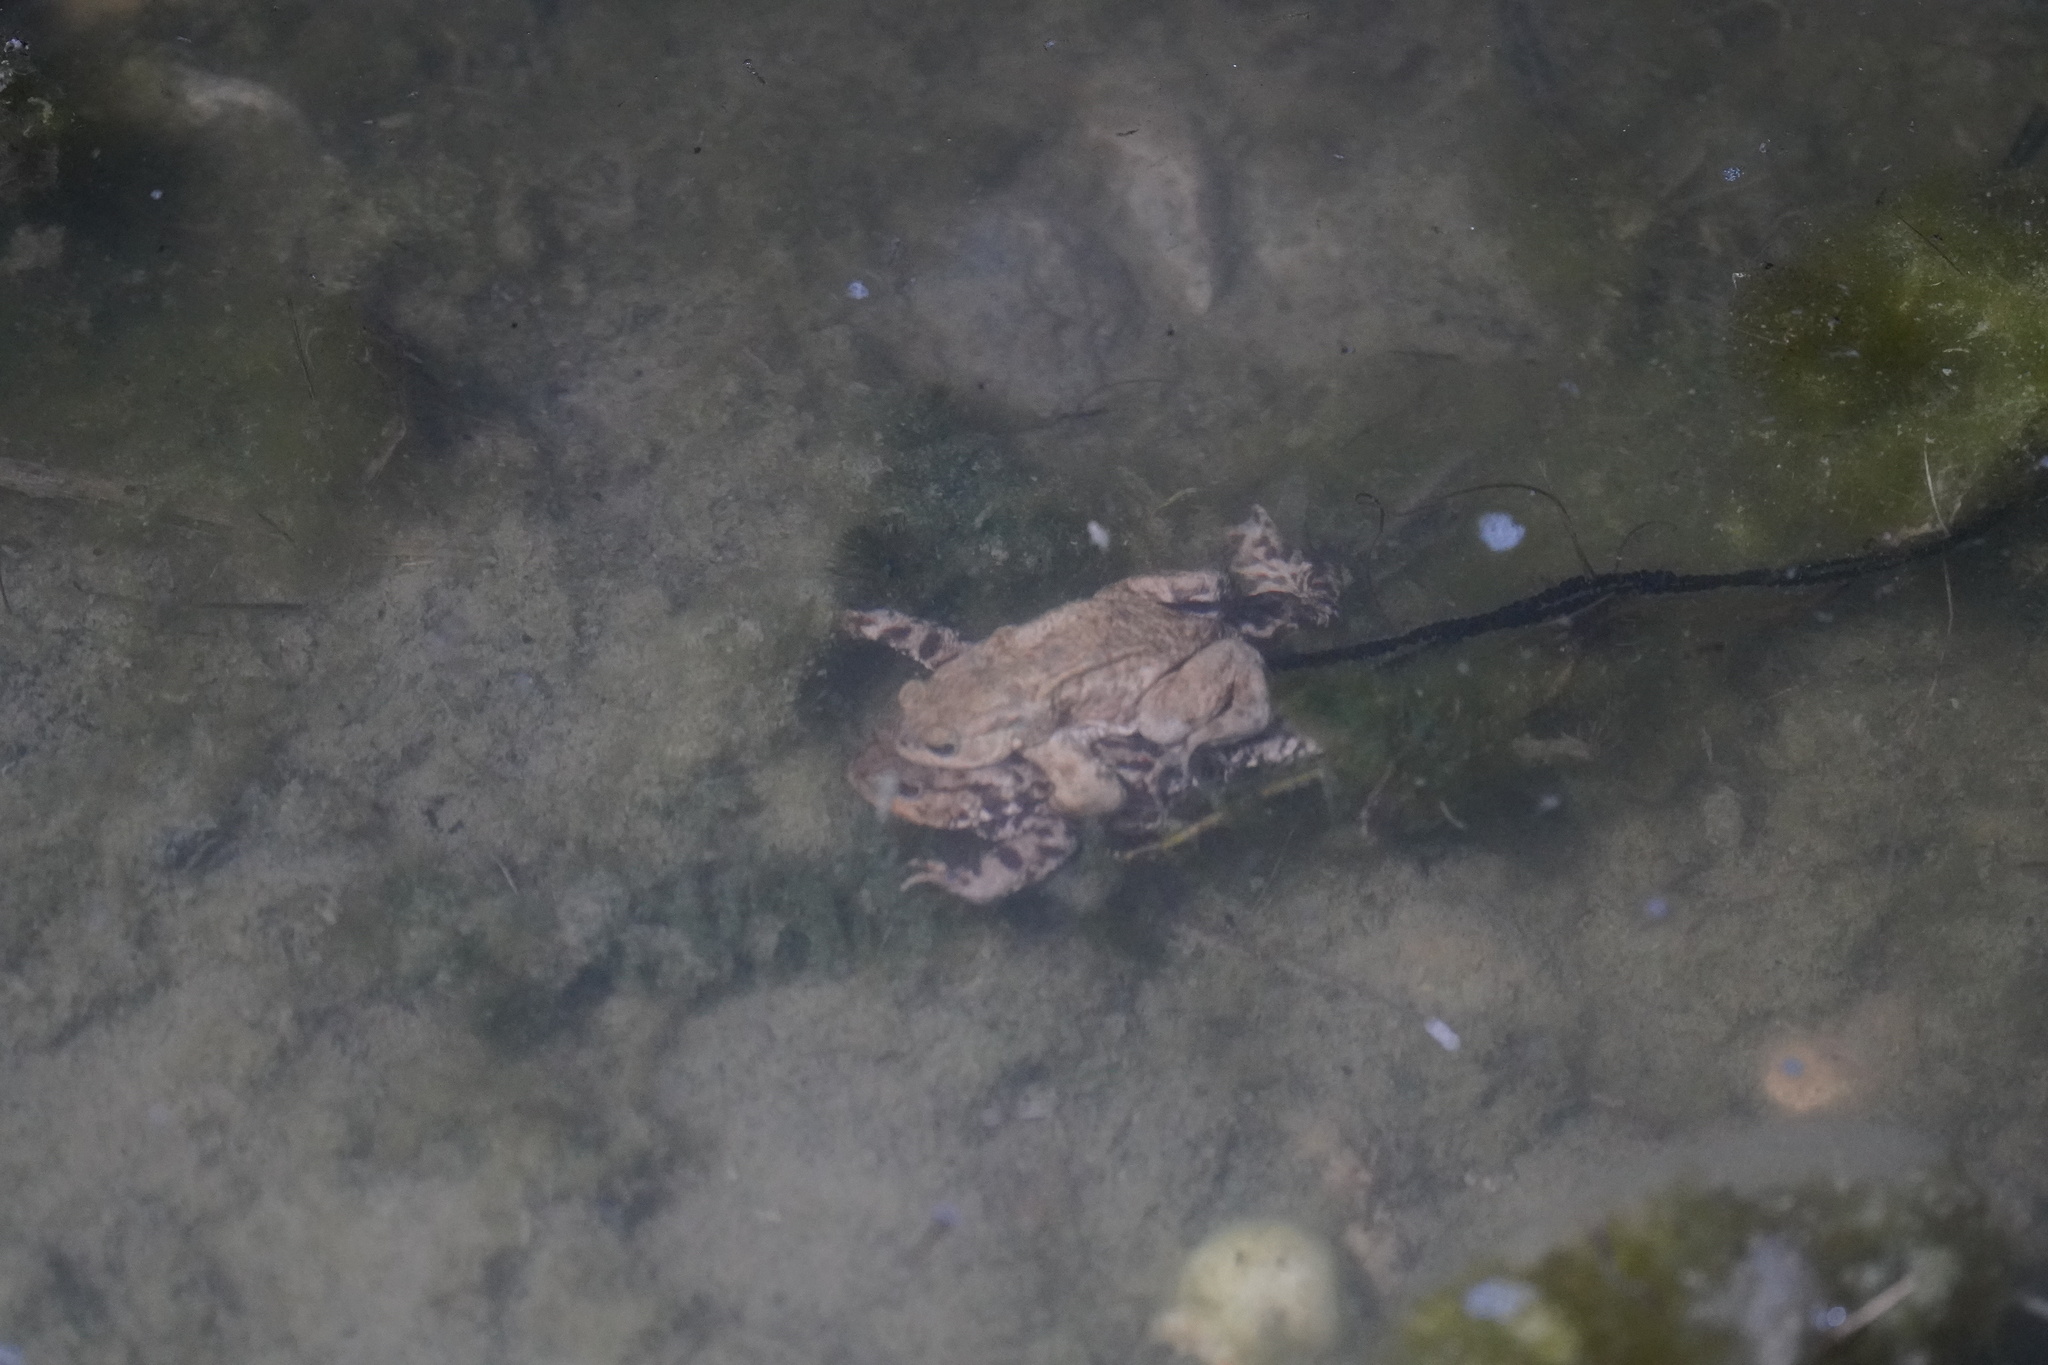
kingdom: Animalia
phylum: Chordata
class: Amphibia
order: Anura
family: Bufonidae
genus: Bufo
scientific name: Bufo bufo
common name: Common toad
